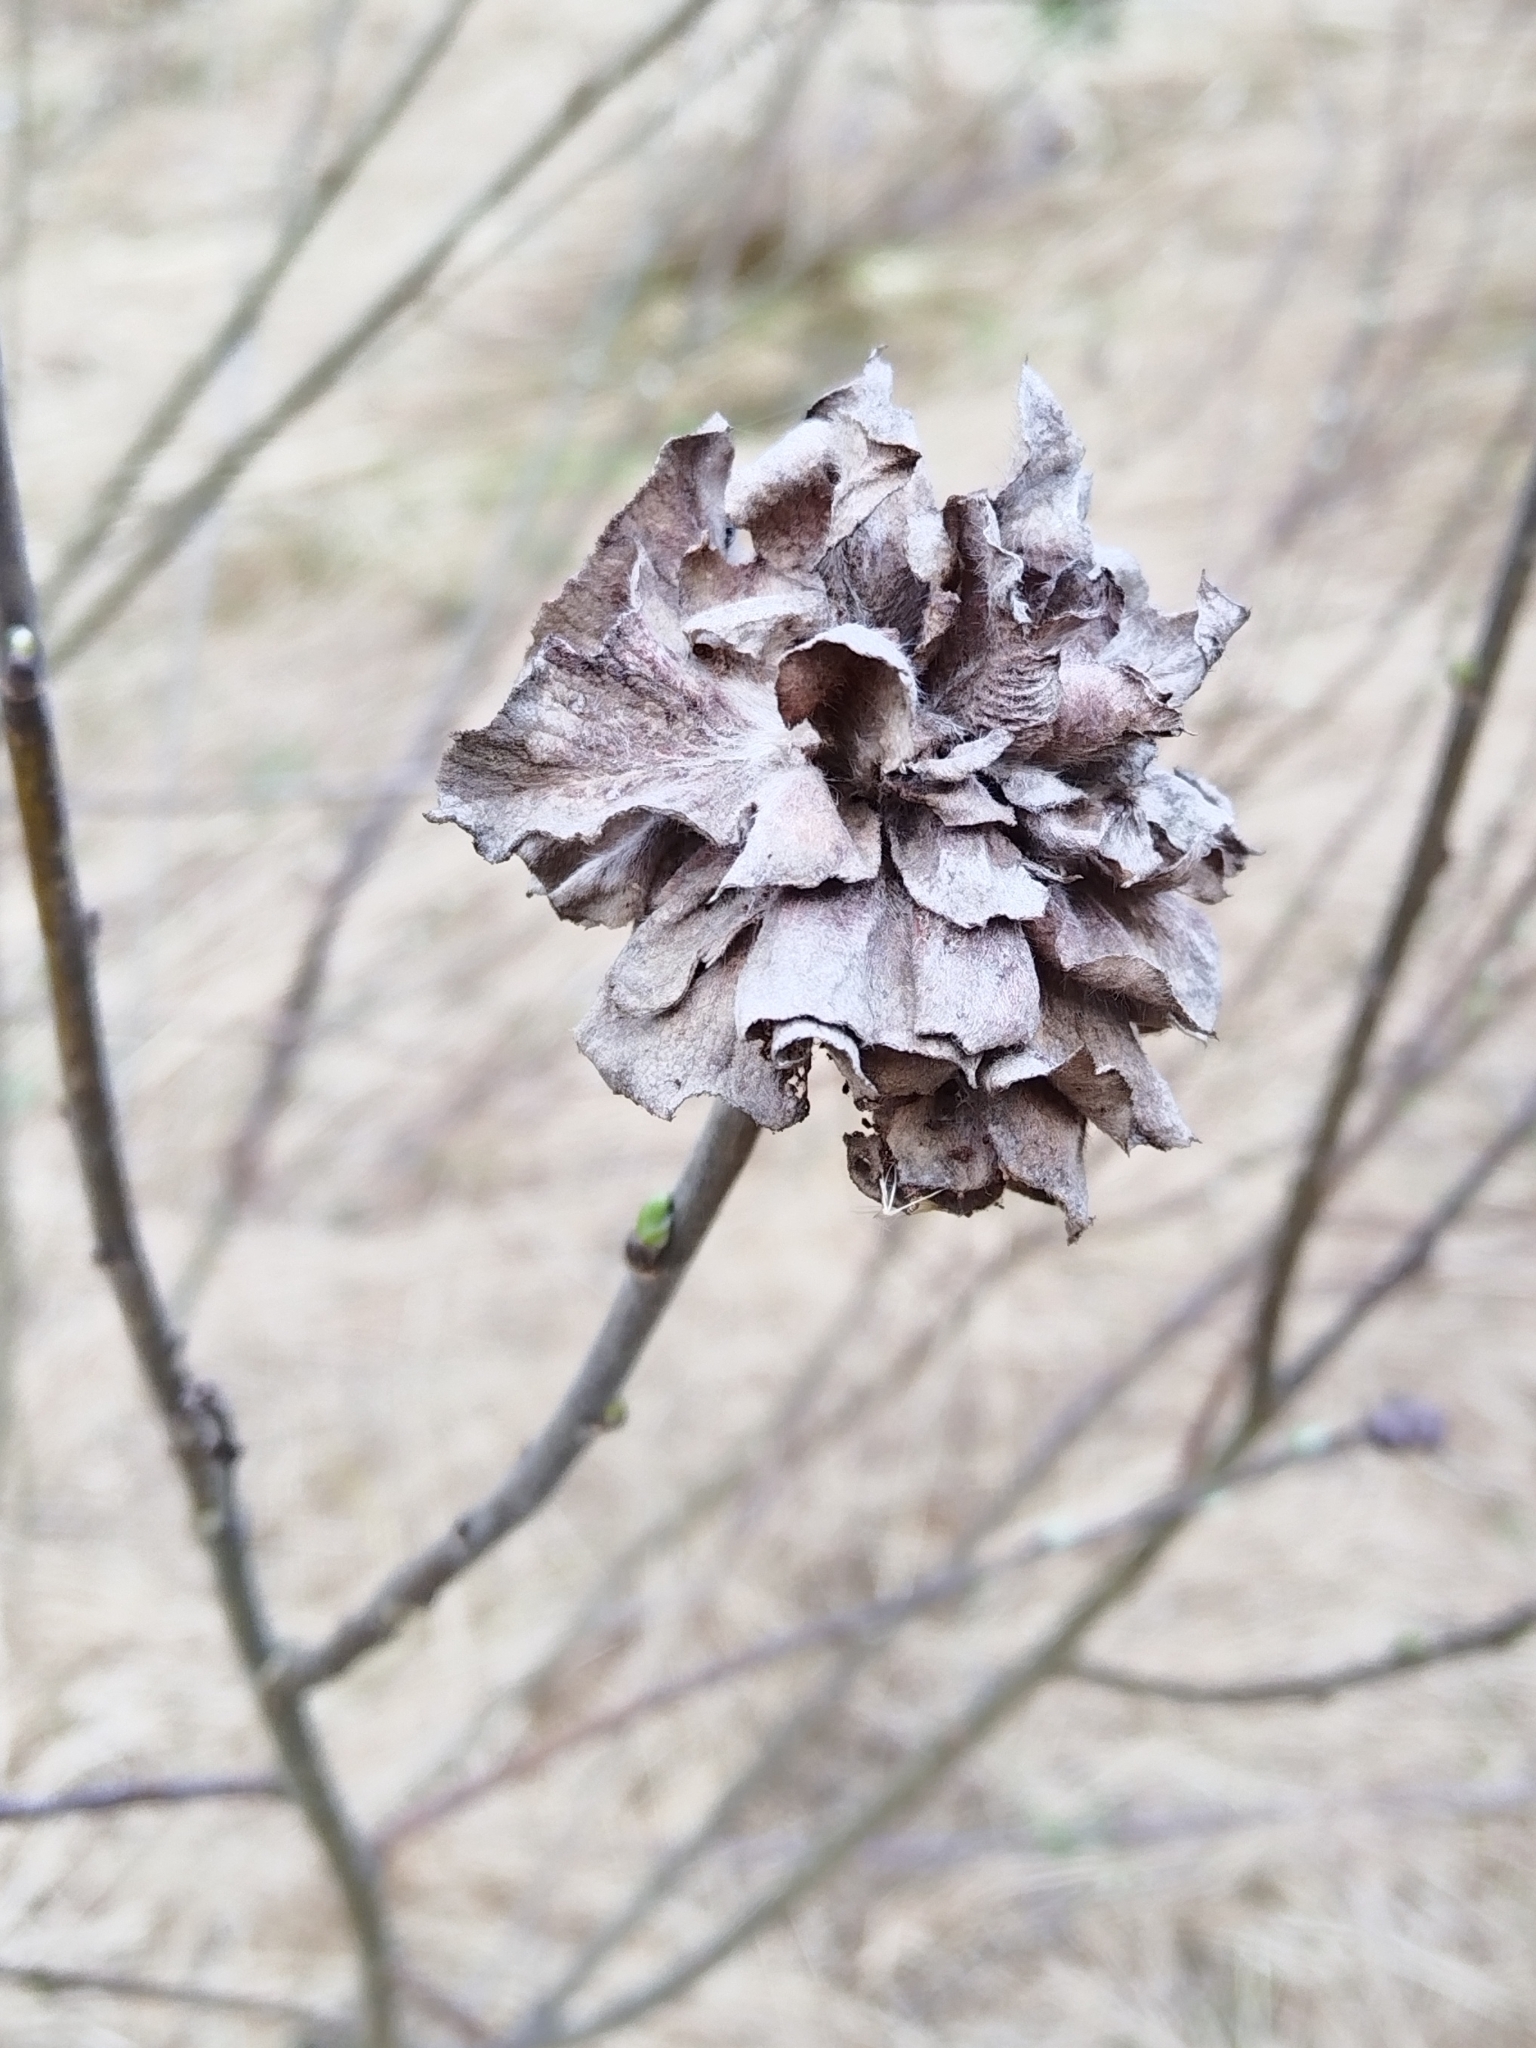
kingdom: Animalia
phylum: Arthropoda
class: Insecta
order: Diptera
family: Cecidomyiidae
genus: Rabdophaga
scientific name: Rabdophaga rosaria
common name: Willow rose gall midge
